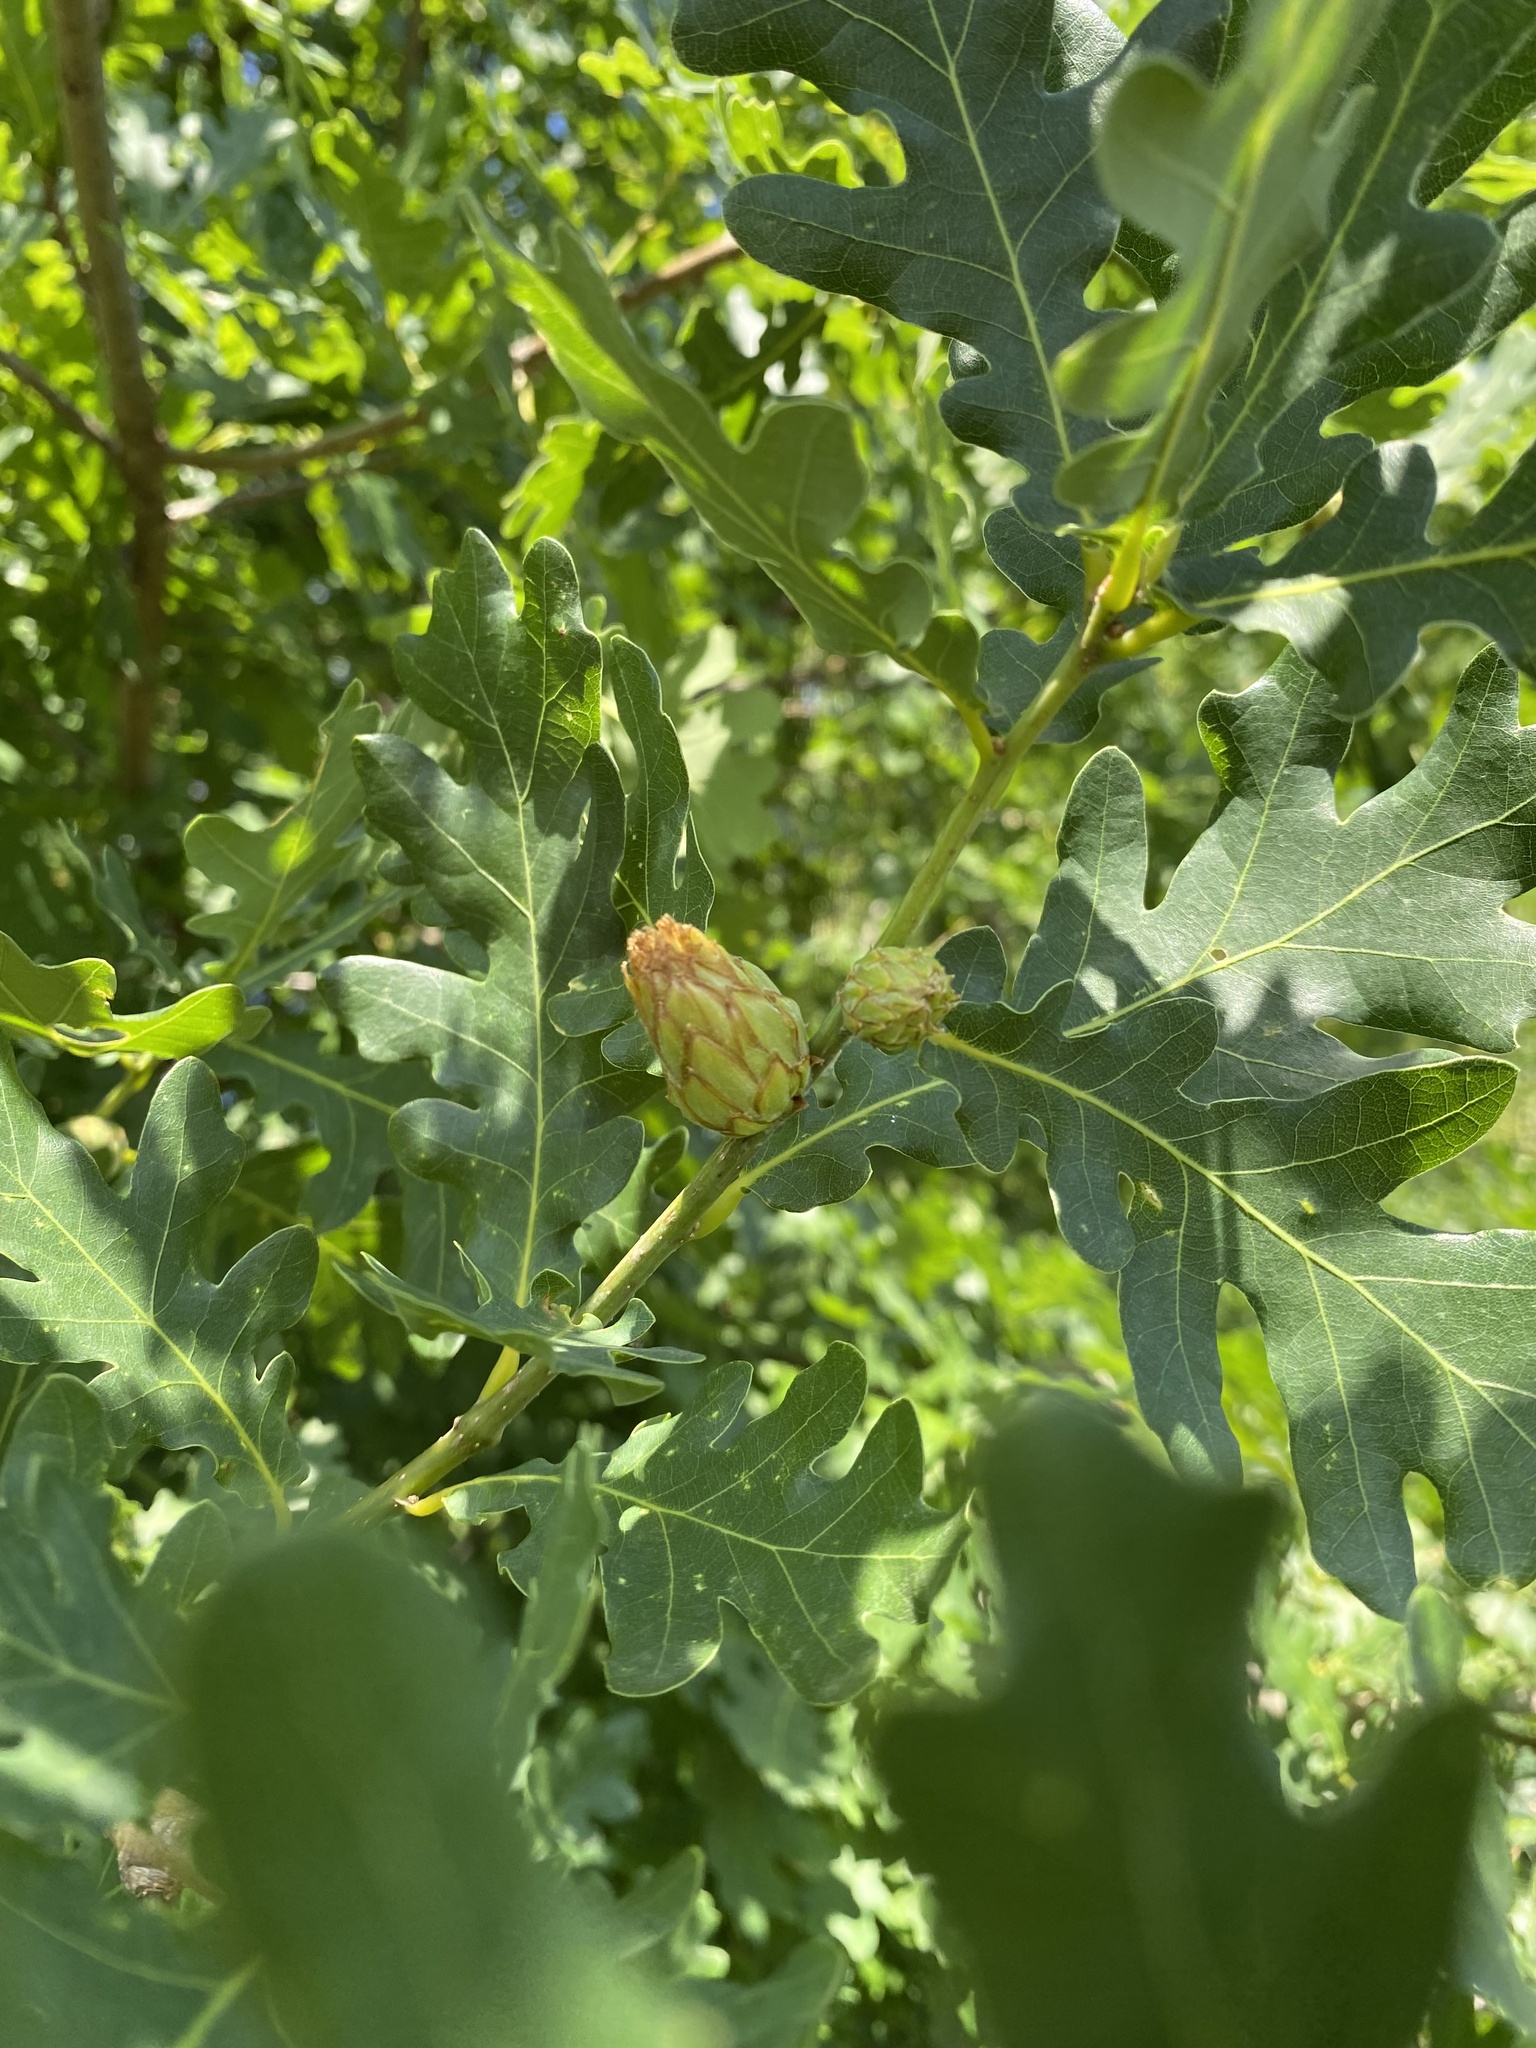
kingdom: Animalia
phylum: Arthropoda
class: Insecta
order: Hymenoptera
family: Cynipidae
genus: Andricus
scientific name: Andricus foecundatrix
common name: Artichoke gall
